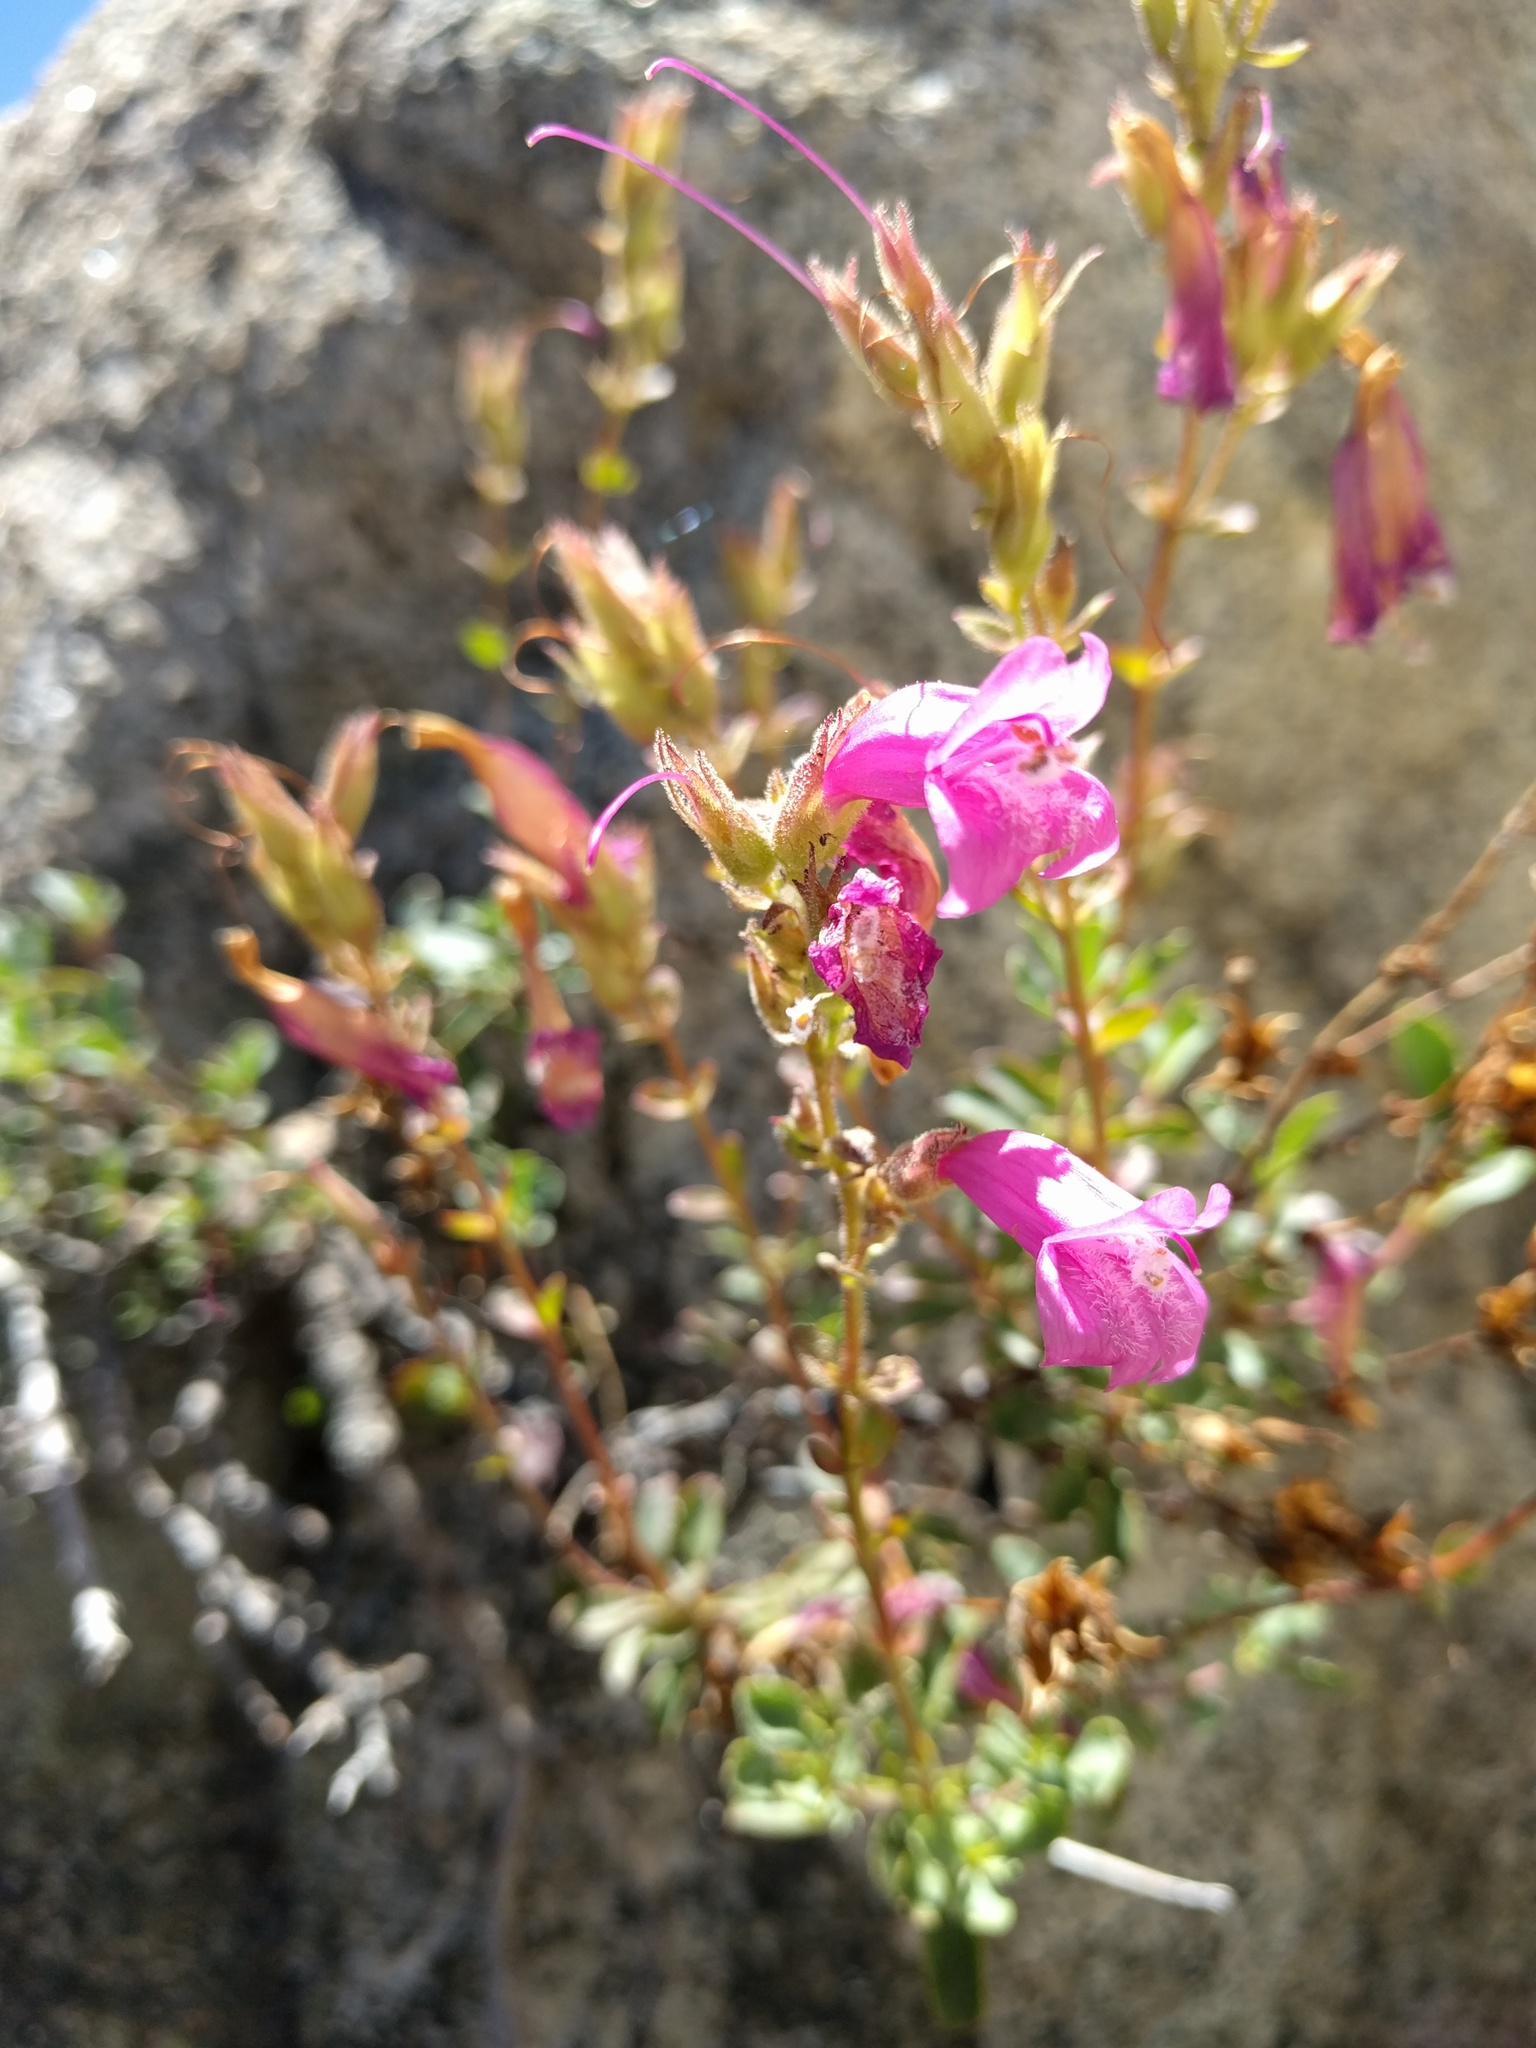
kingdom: Plantae
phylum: Tracheophyta
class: Magnoliopsida
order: Lamiales
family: Plantaginaceae
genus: Penstemon
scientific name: Penstemon newberryi
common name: Mountain-pride
